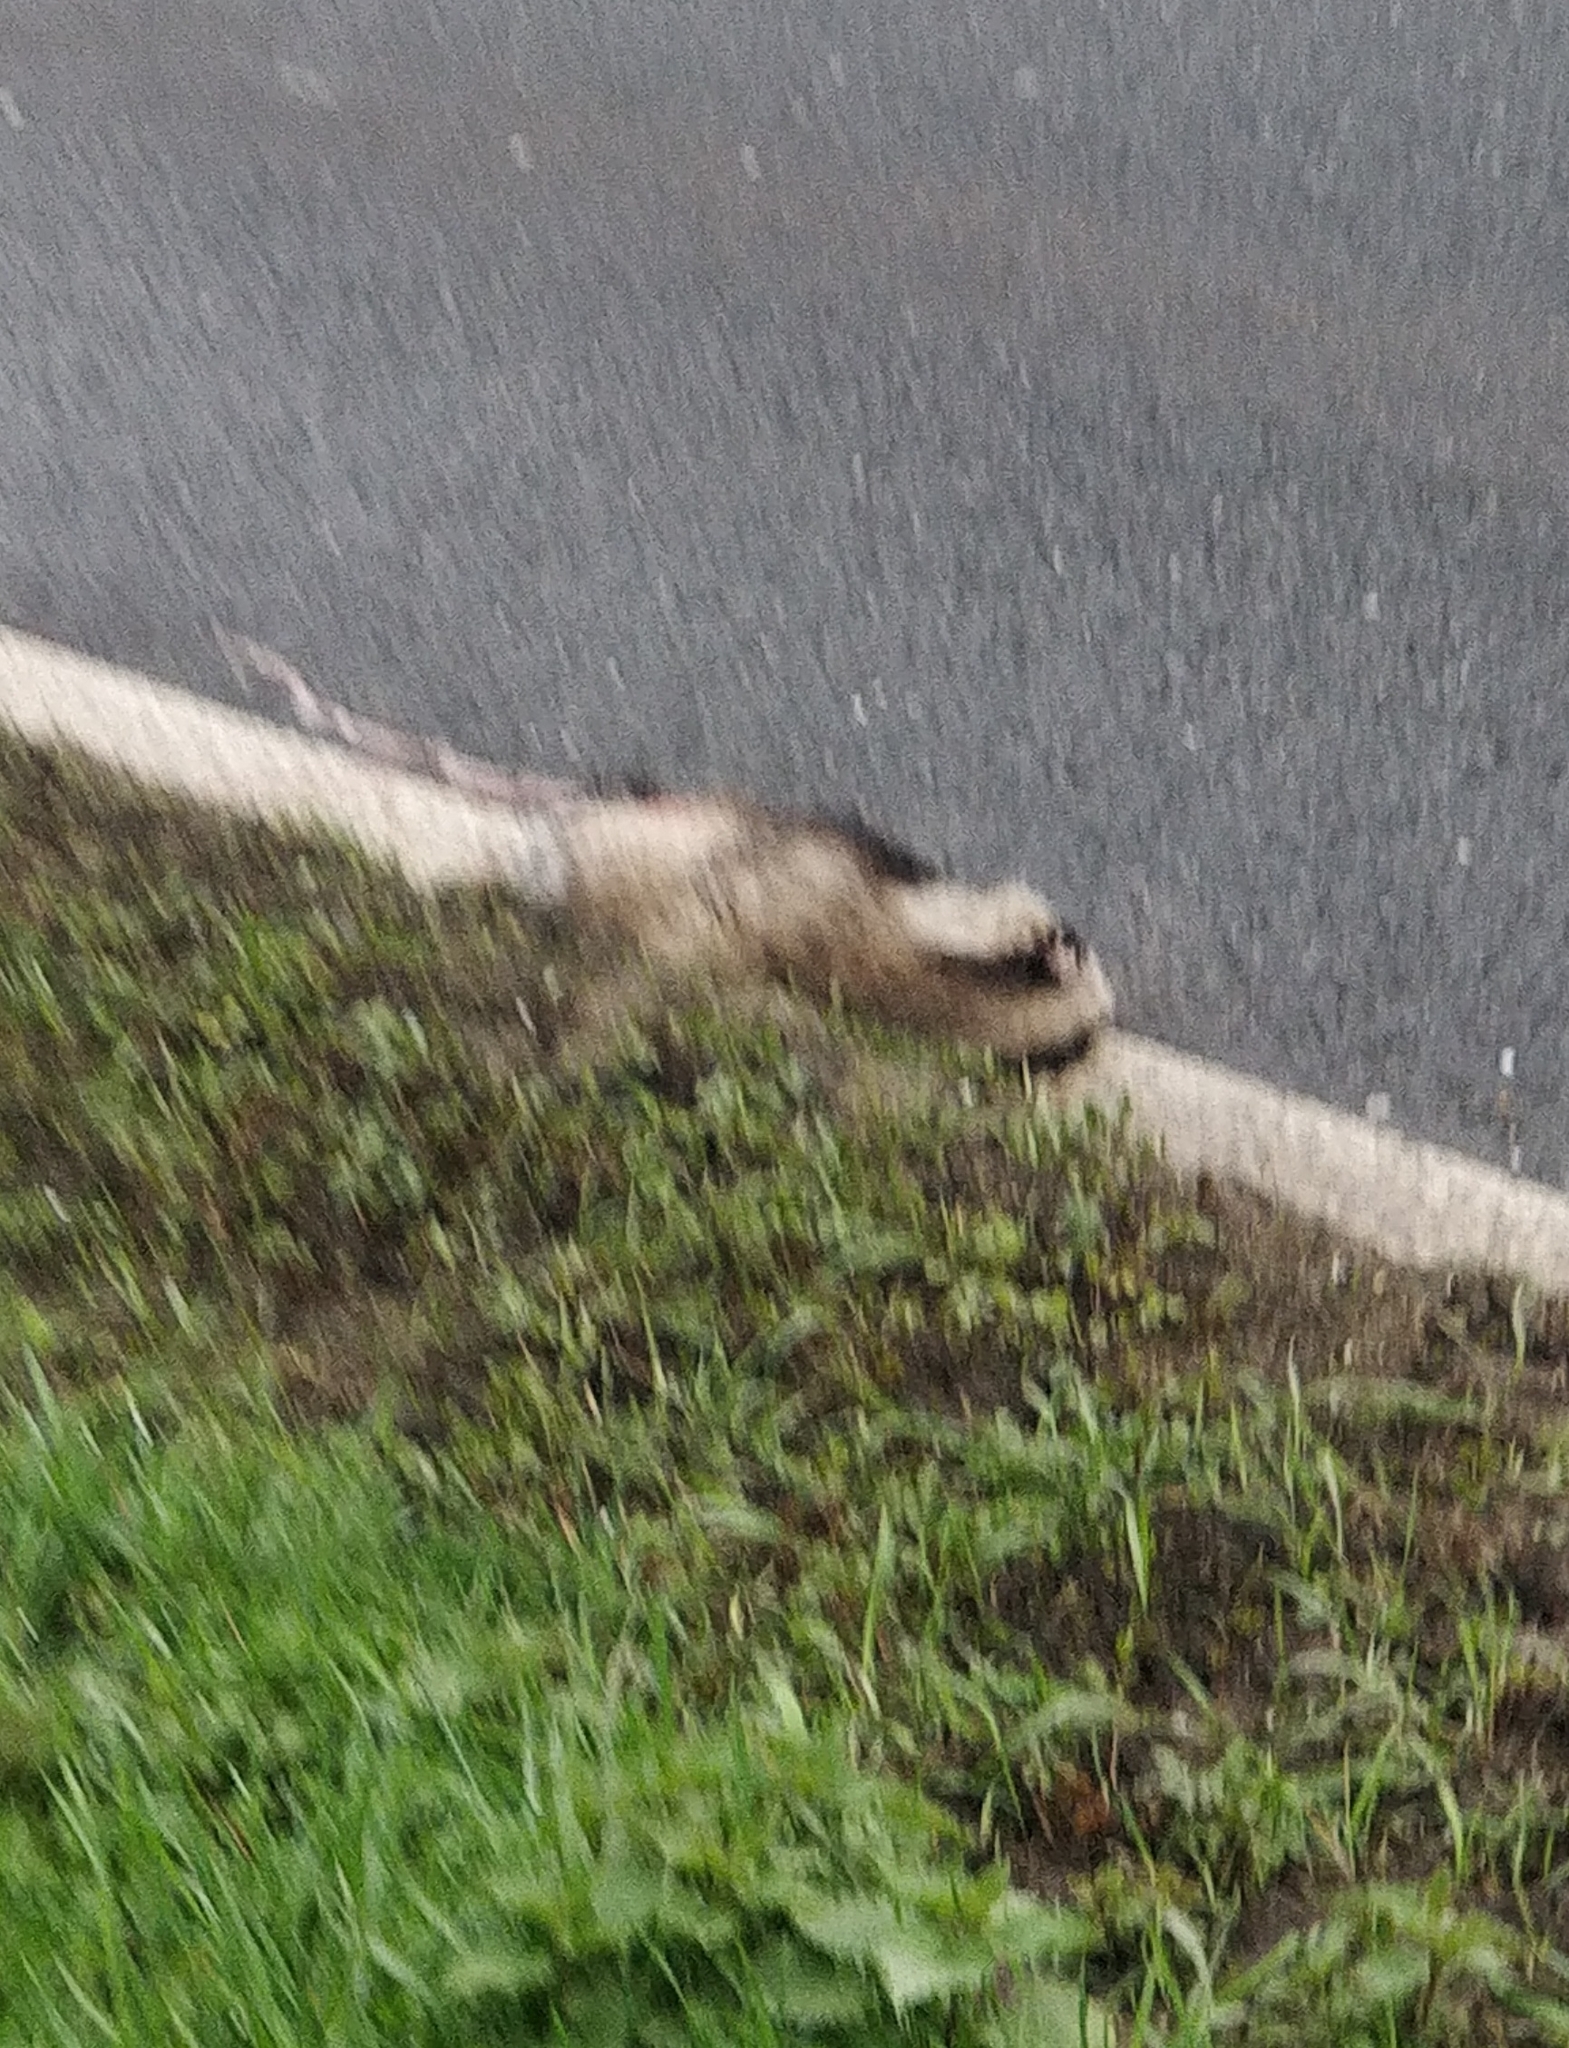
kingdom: Animalia
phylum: Chordata
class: Mammalia
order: Carnivora
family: Mustelidae
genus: Meles
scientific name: Meles meles
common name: Eurasian badger
